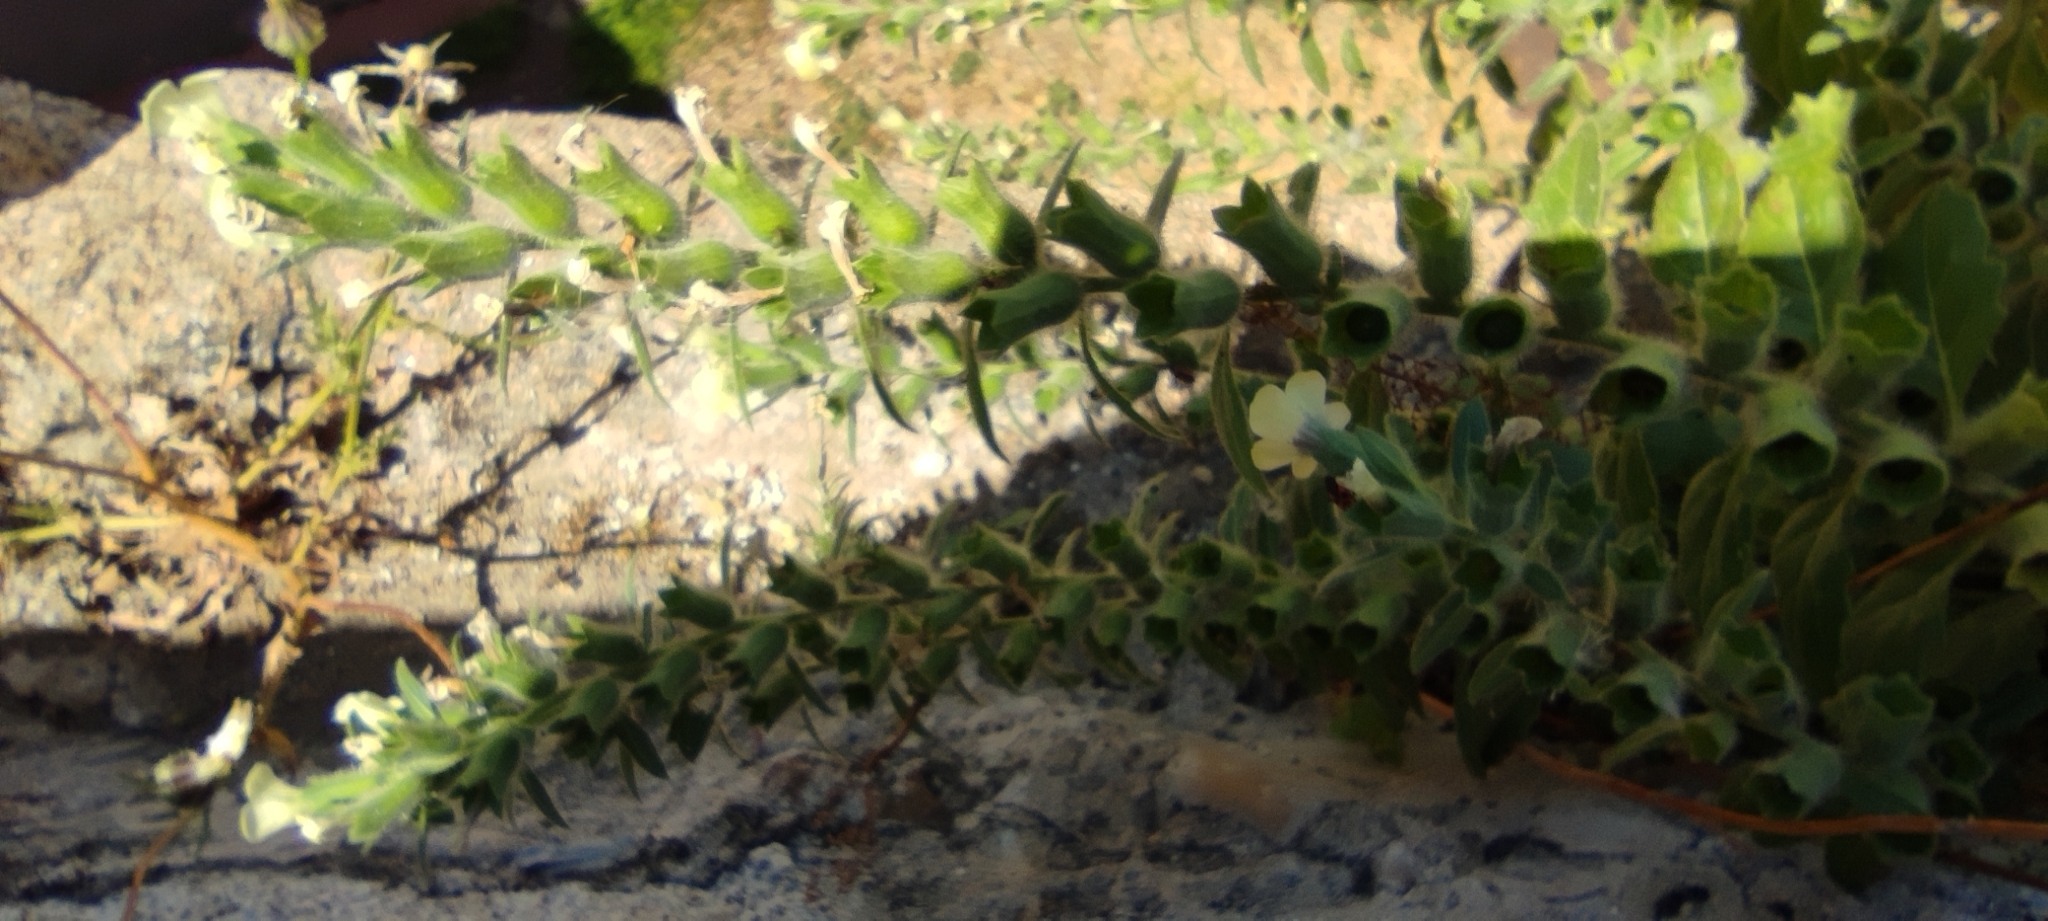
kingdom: Plantae
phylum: Tracheophyta
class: Magnoliopsida
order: Solanales
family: Solanaceae
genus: Hyoscyamus
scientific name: Hyoscyamus albus
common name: White henbane
